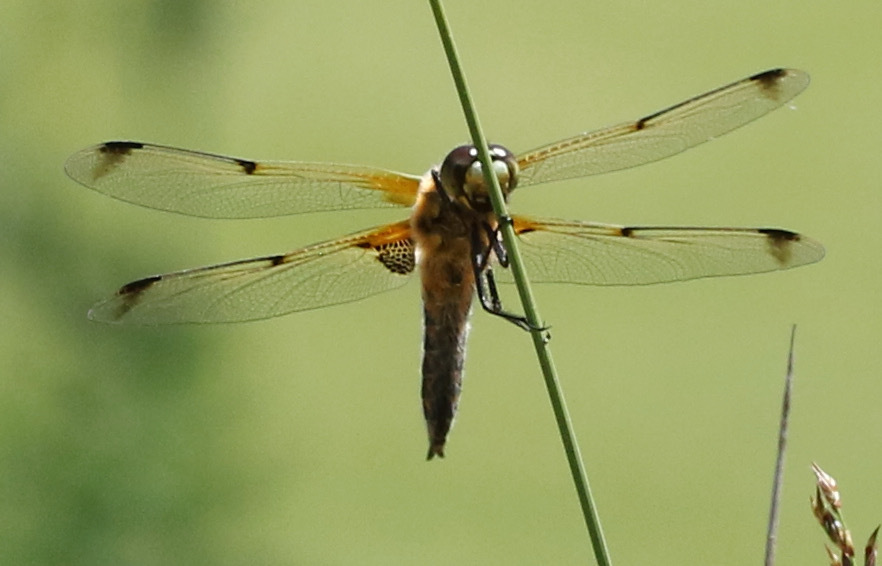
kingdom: Animalia
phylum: Arthropoda
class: Insecta
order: Odonata
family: Libellulidae
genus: Libellula
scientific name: Libellula quadrimaculata
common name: Four-spotted chaser
